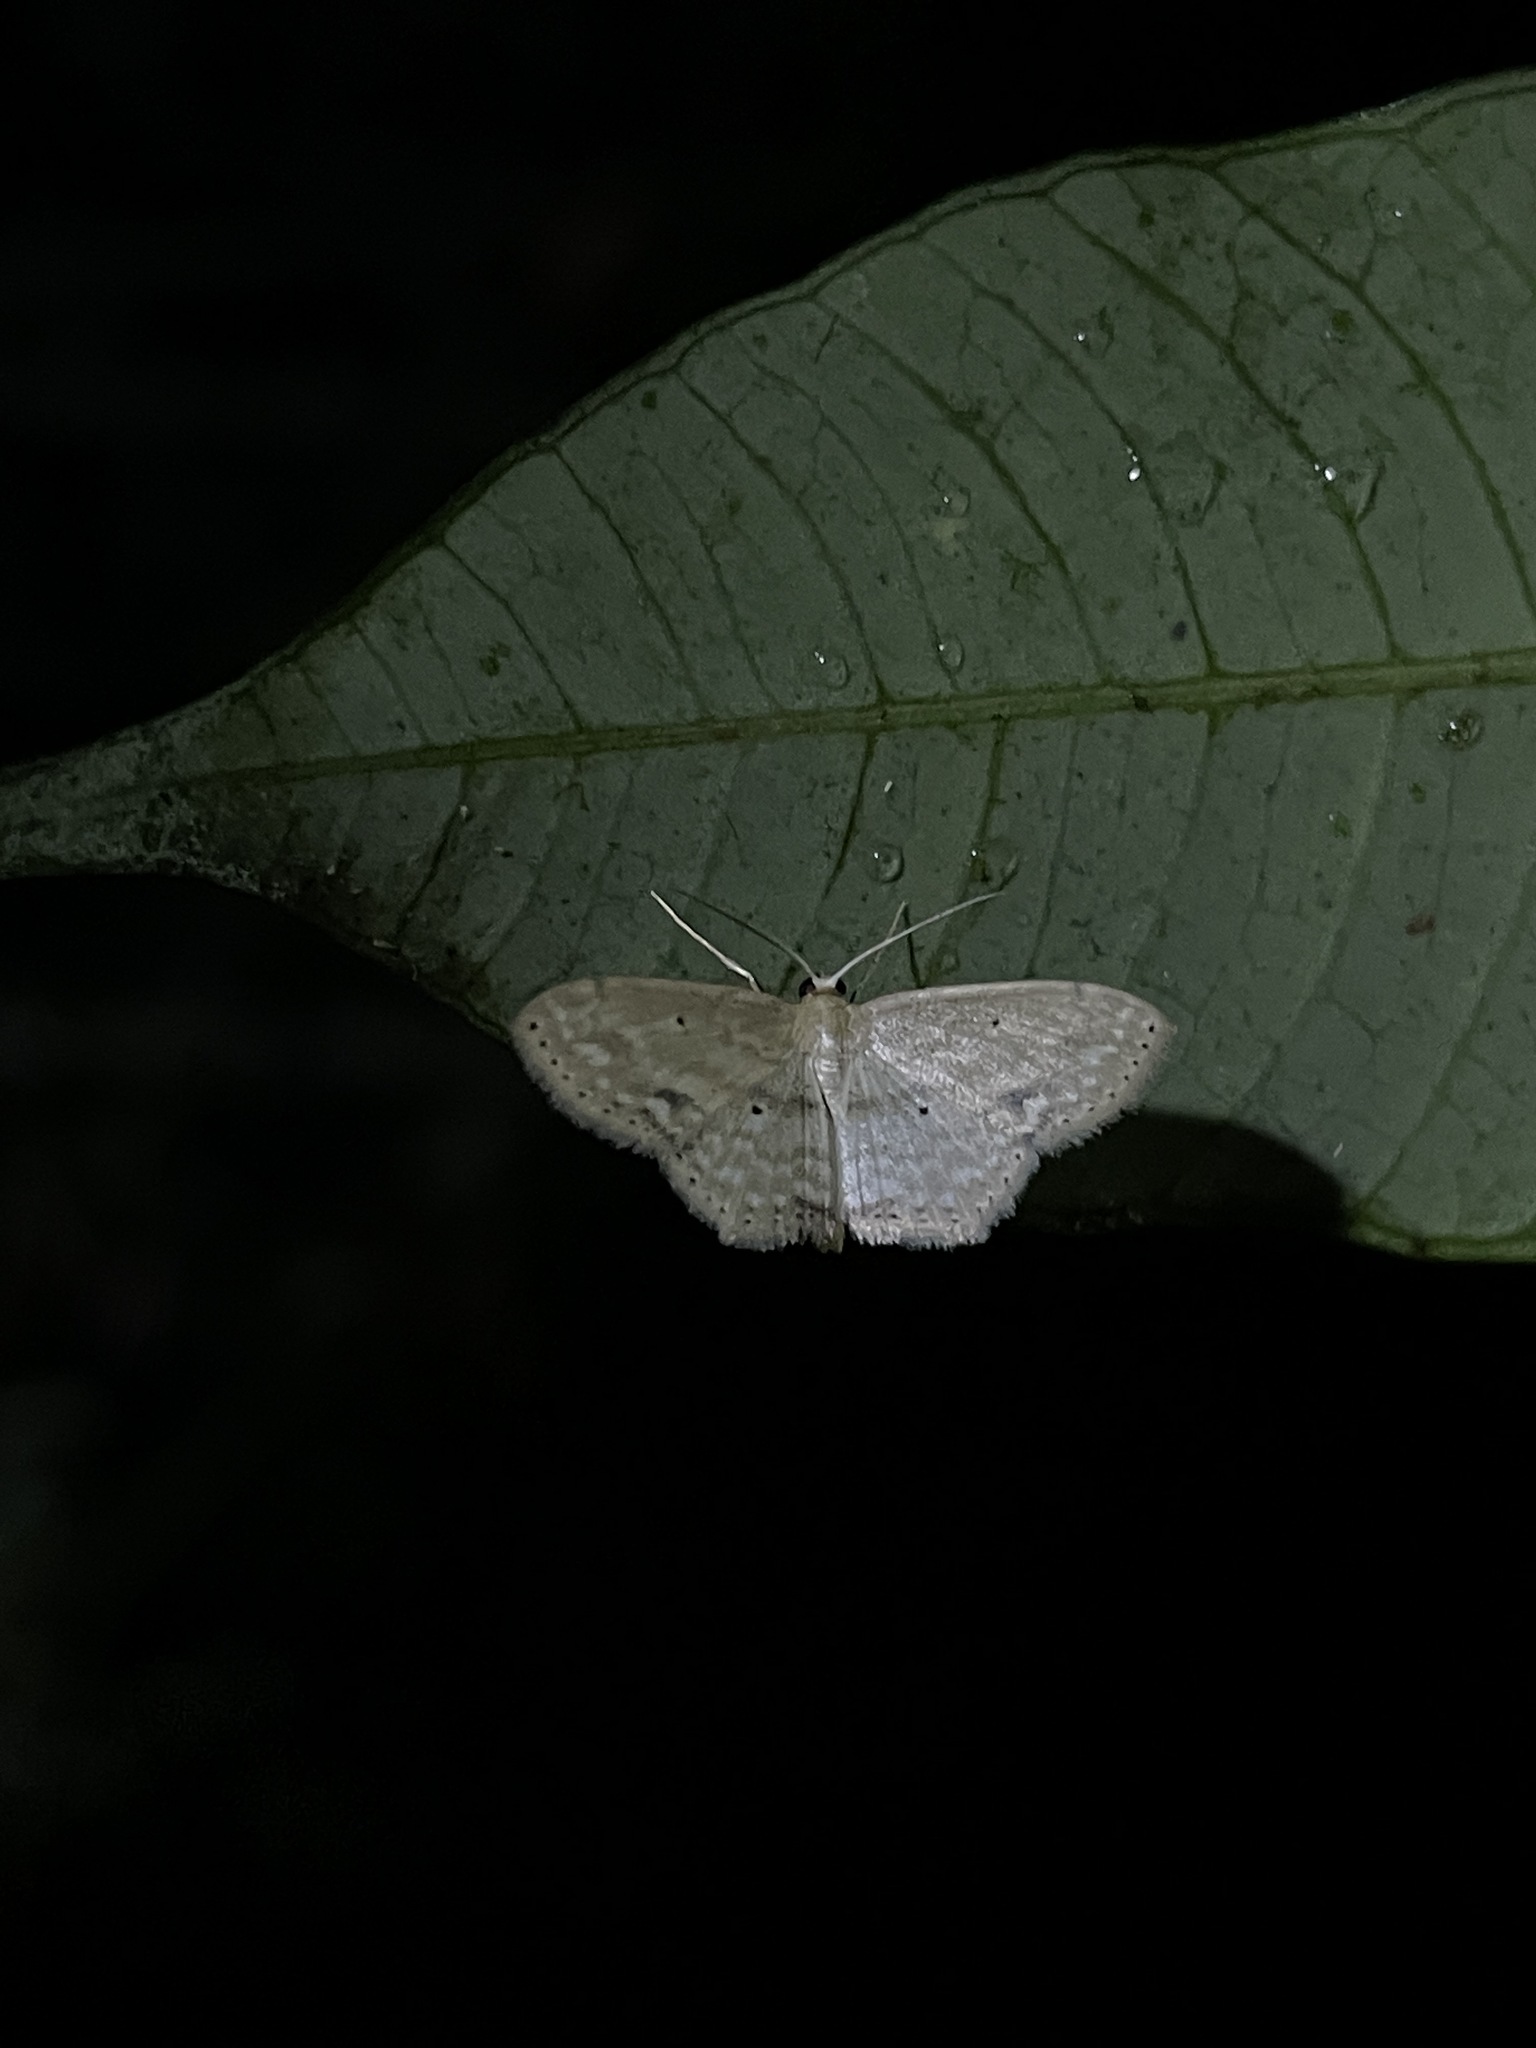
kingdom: Animalia
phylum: Arthropoda
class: Insecta
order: Lepidoptera
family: Geometridae
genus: Scopula
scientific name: Scopula subquadrata
